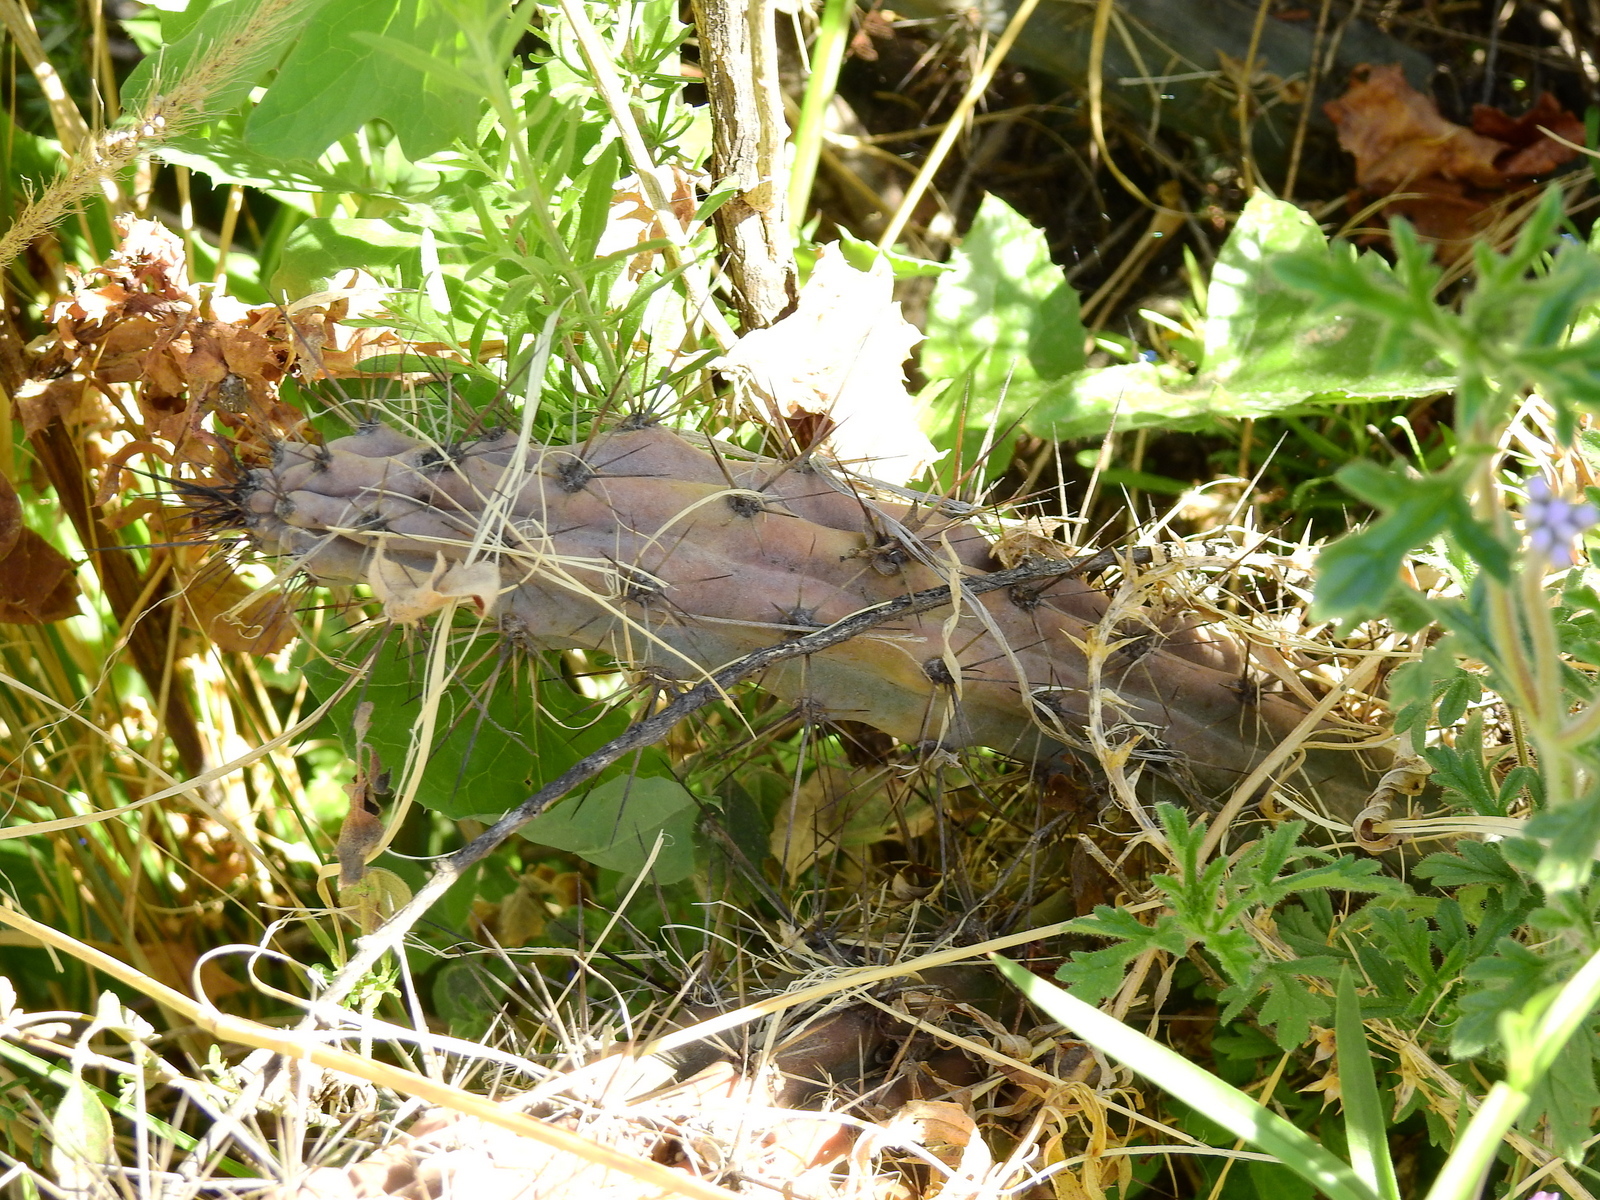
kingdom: Plantae
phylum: Tracheophyta
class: Magnoliopsida
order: Caryophyllales
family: Cactaceae
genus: Cereus
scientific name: Cereus aethiops
